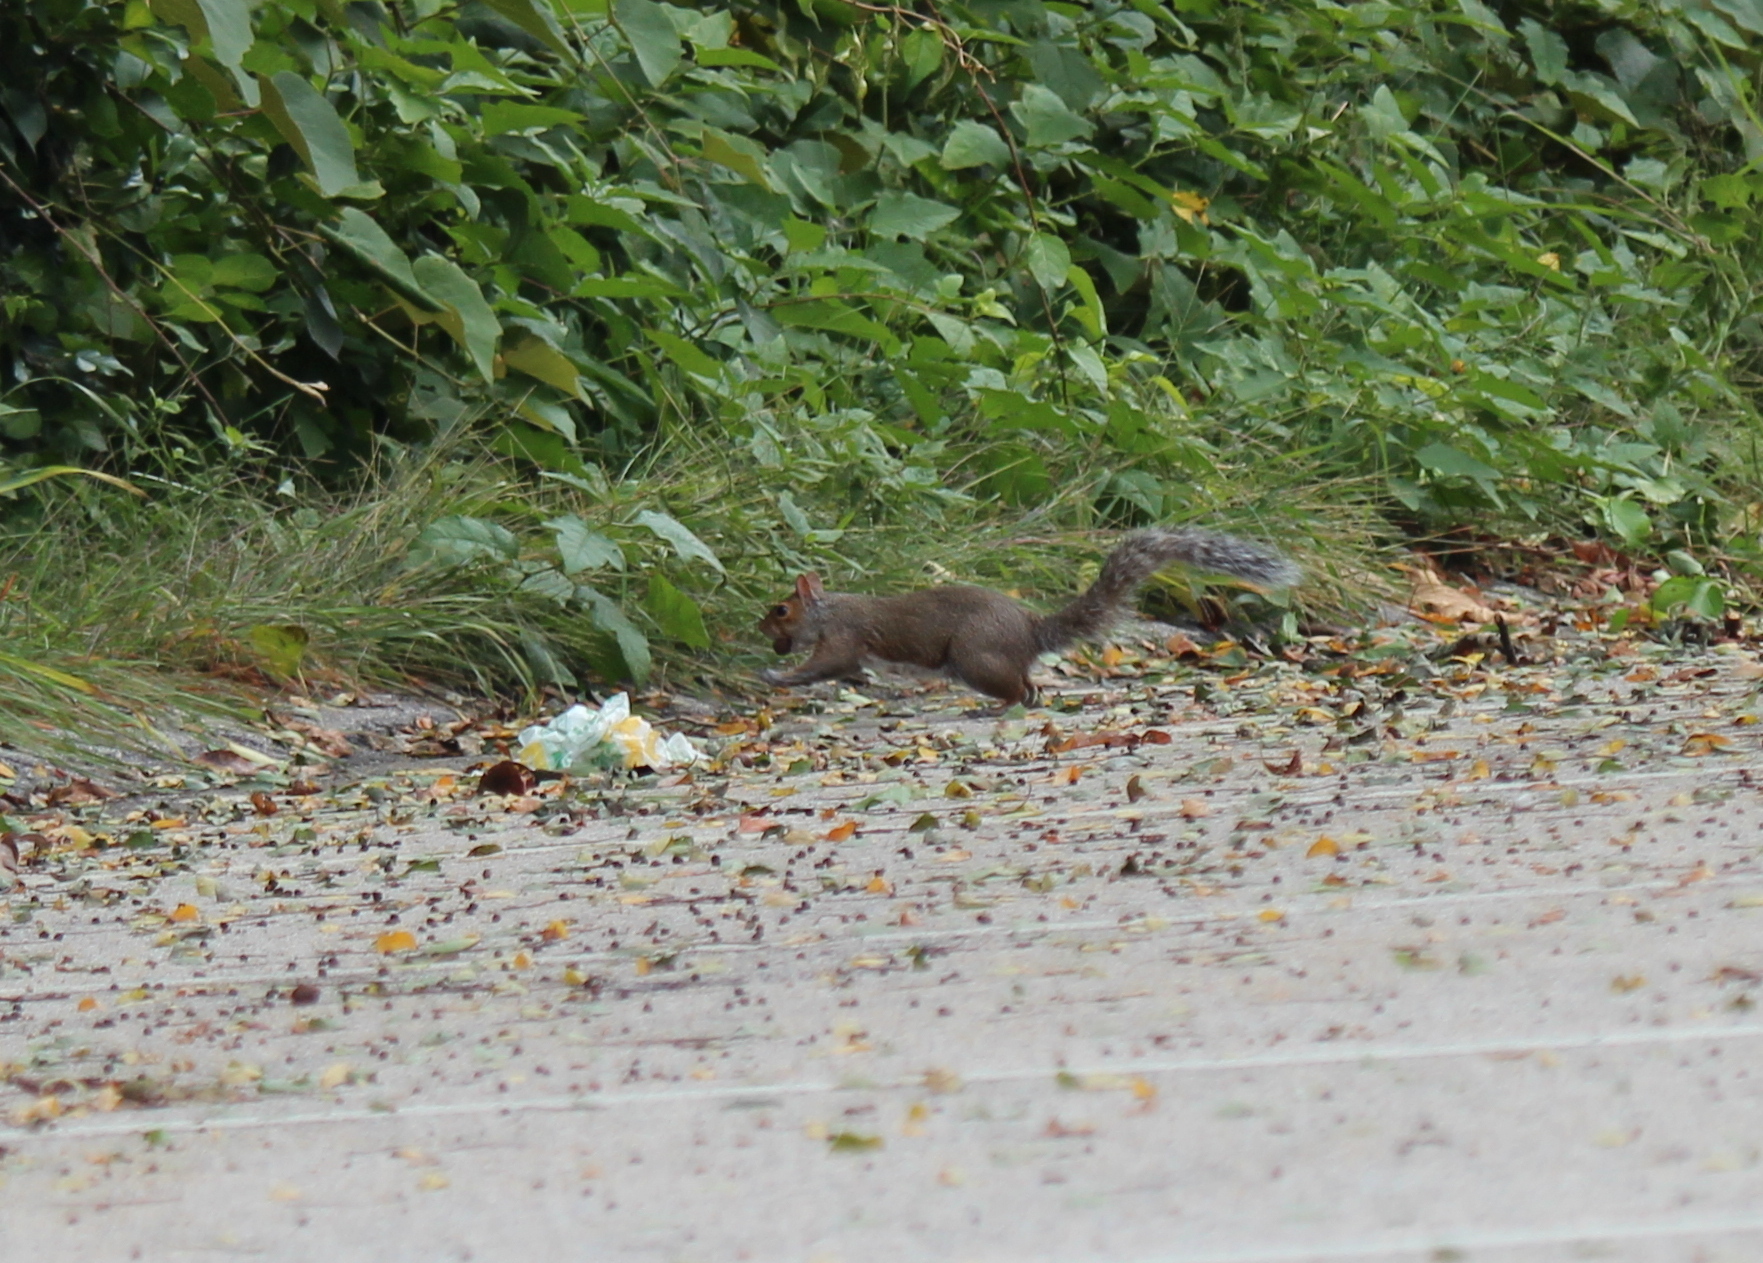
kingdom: Animalia
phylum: Chordata
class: Mammalia
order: Rodentia
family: Sciuridae
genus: Sciurus
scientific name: Sciurus carolinensis
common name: Eastern gray squirrel
